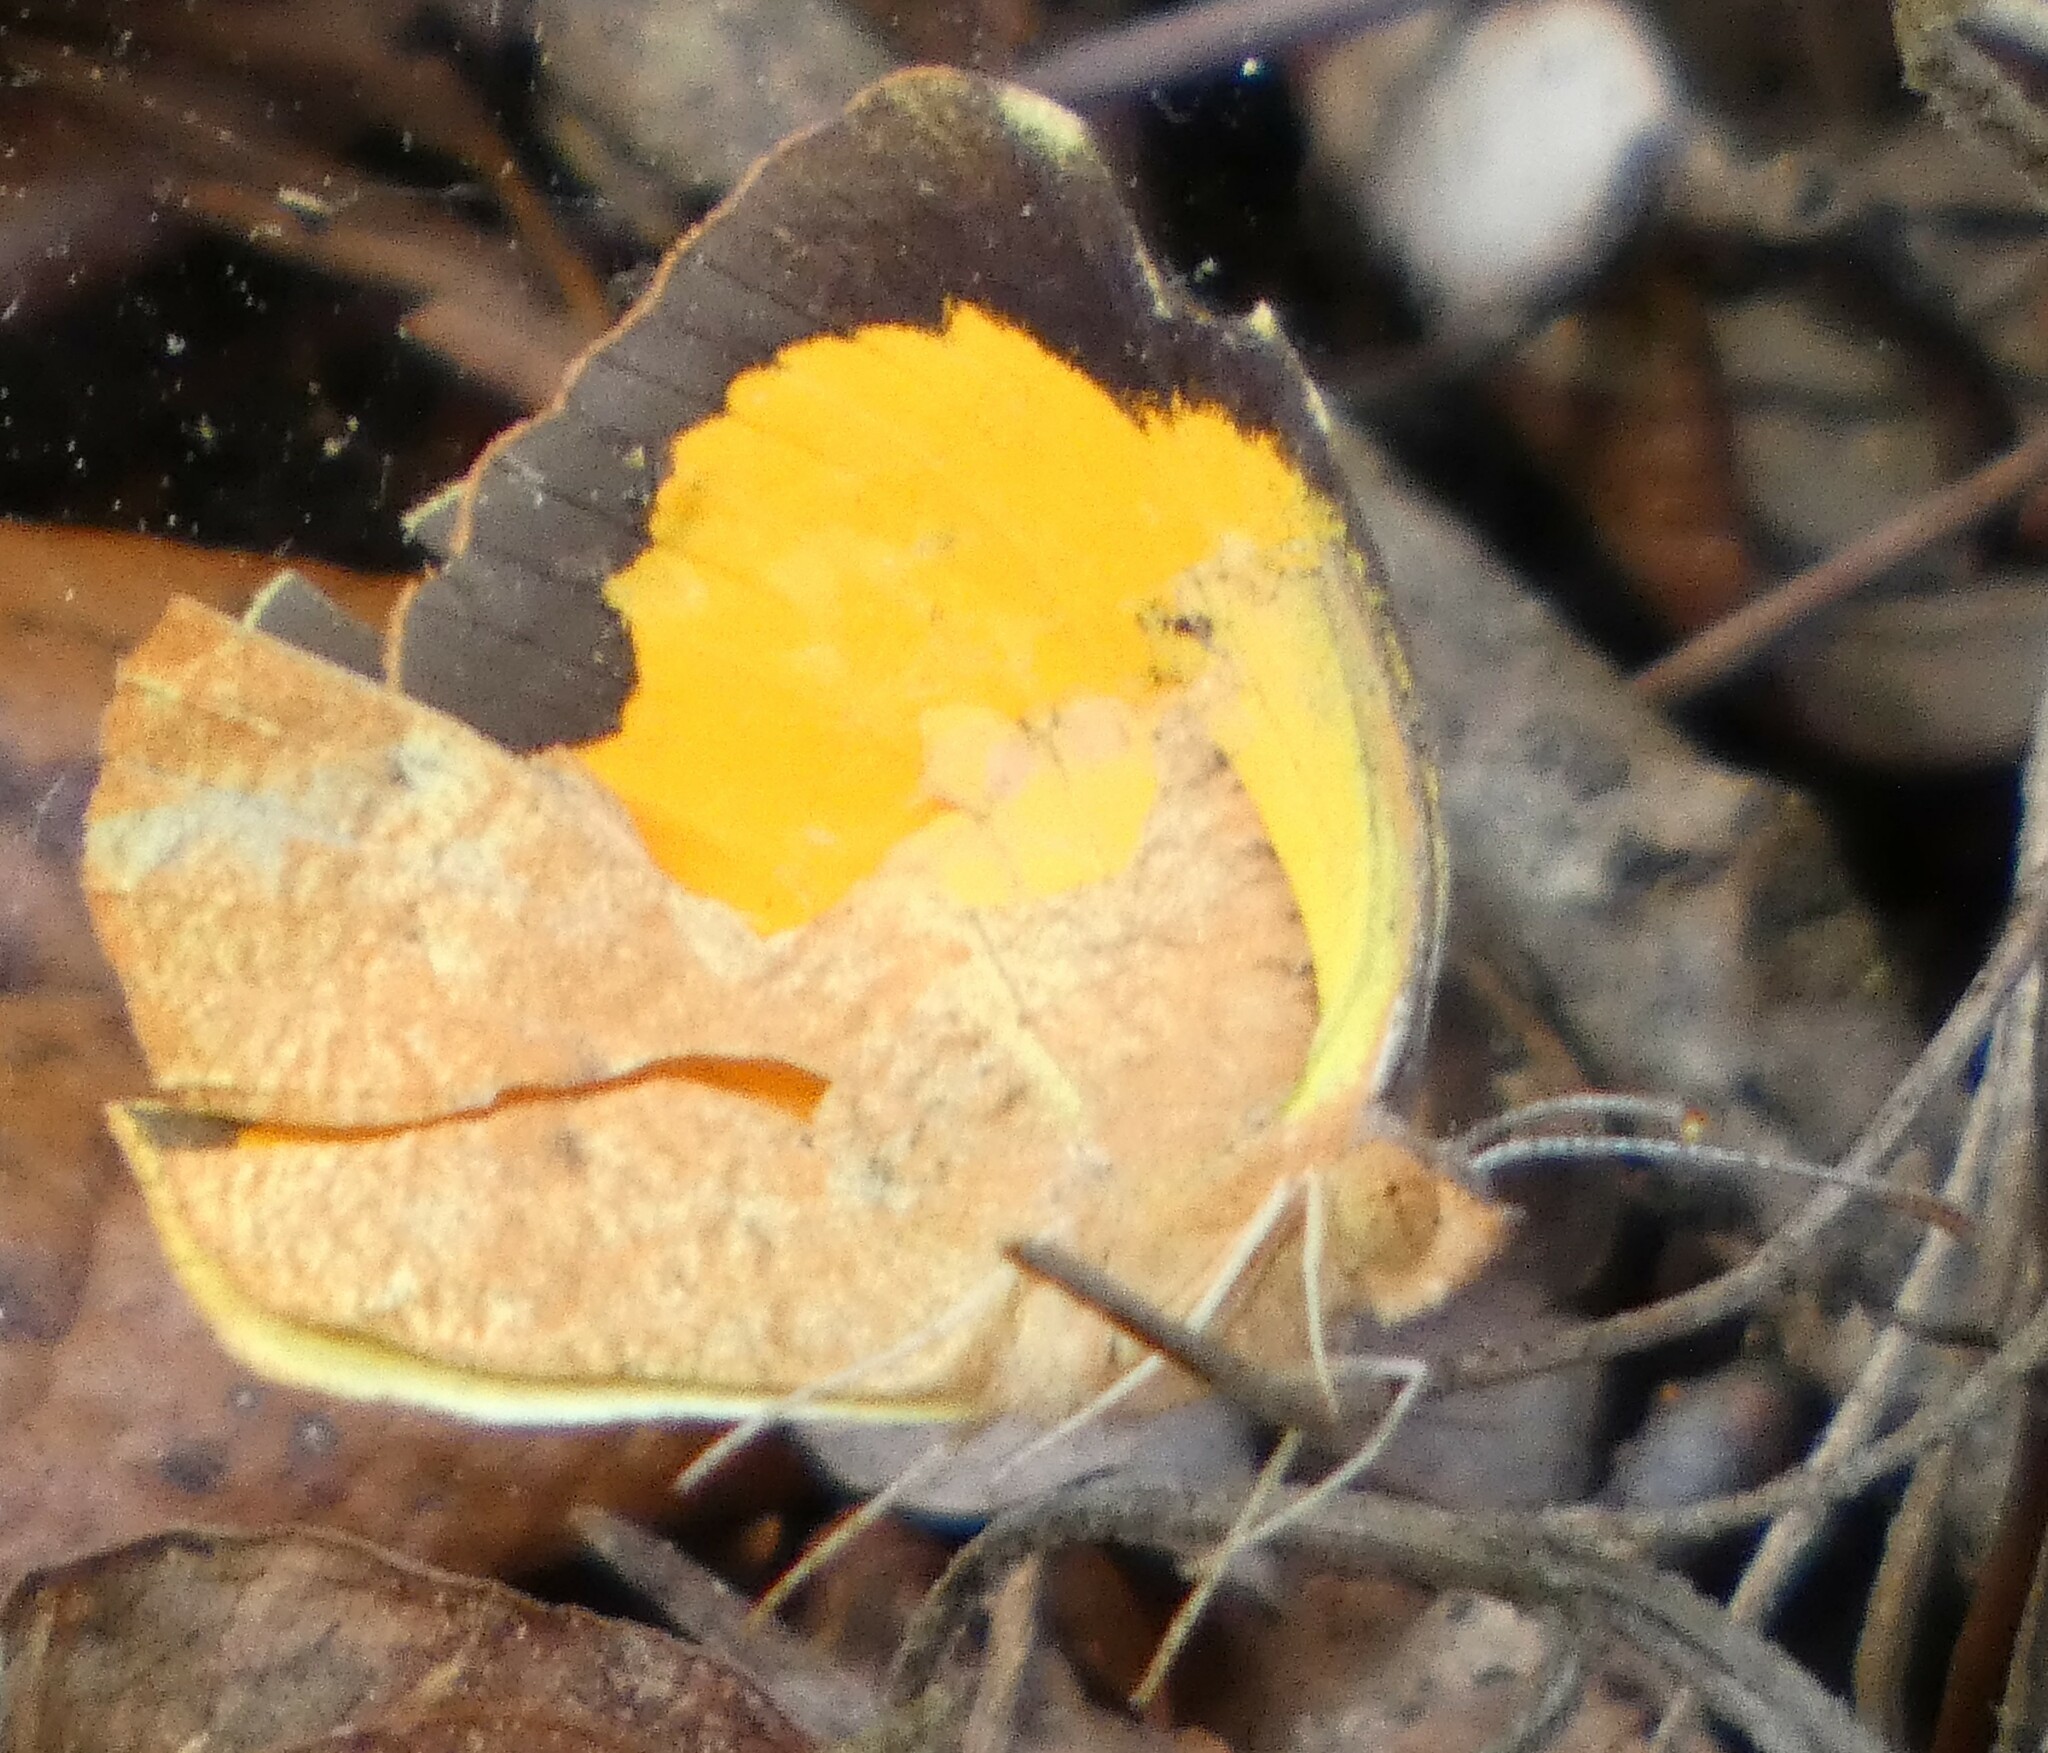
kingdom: Animalia
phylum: Arthropoda
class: Insecta
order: Lepidoptera
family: Pieridae
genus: Abaeis
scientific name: Abaeis nicippe
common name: Sleepy orange
